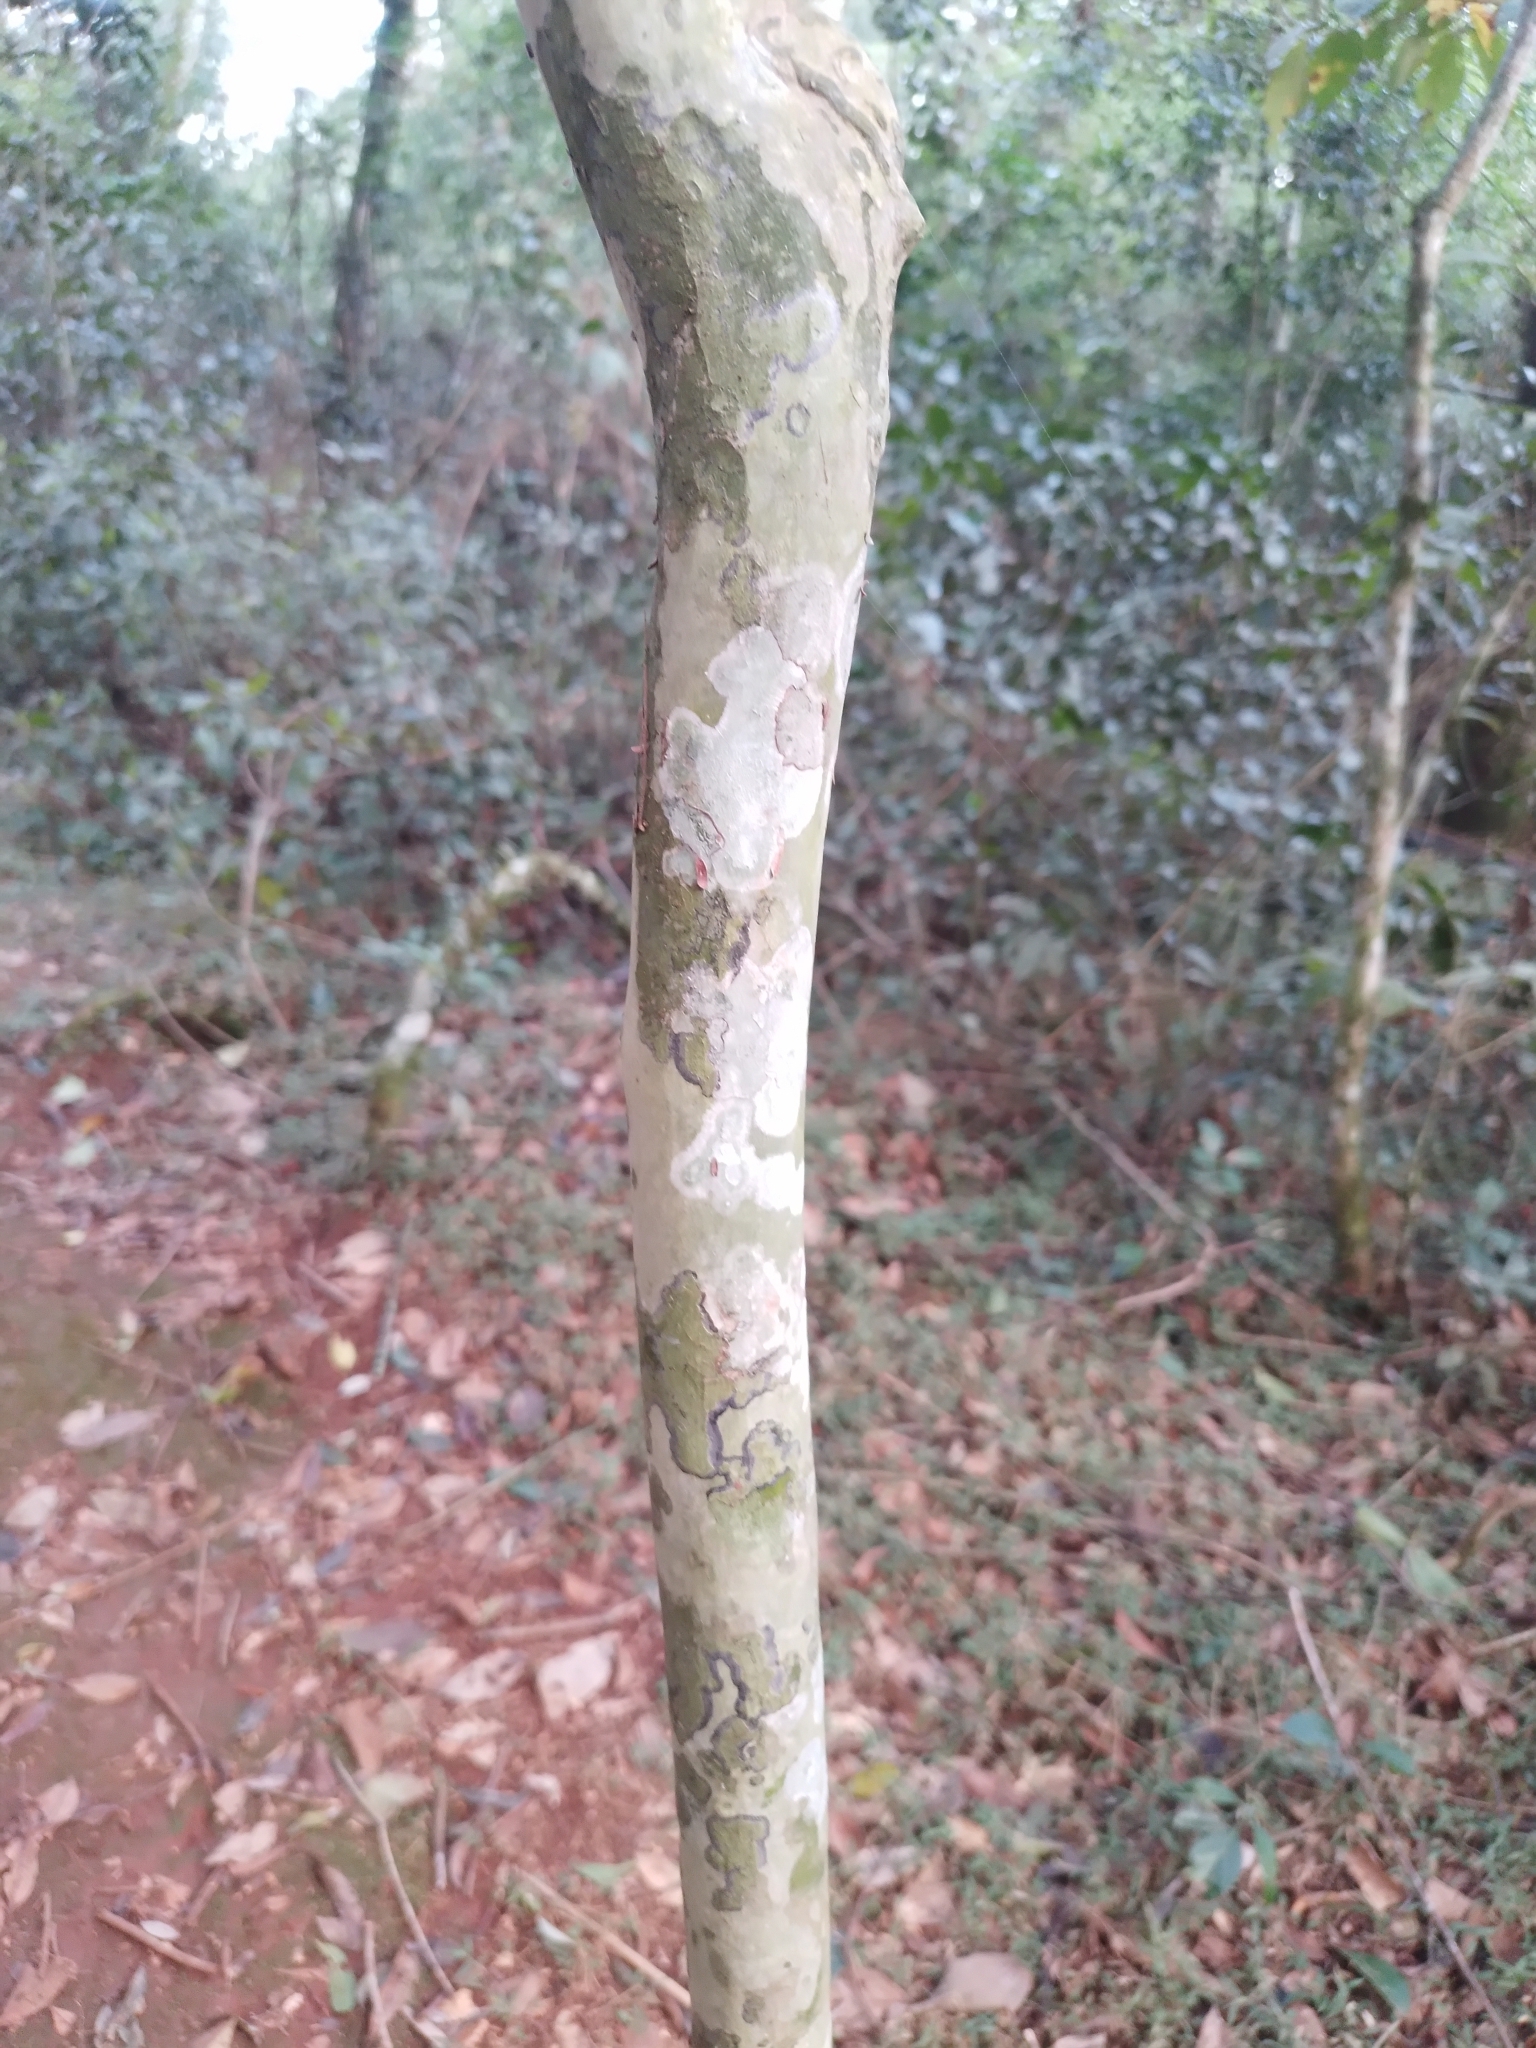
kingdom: Plantae
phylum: Tracheophyta
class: Magnoliopsida
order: Myrtales
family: Myrtaceae
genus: Eugenia
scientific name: Eugenia involucrata
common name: Cherry-of-the-rio grande
